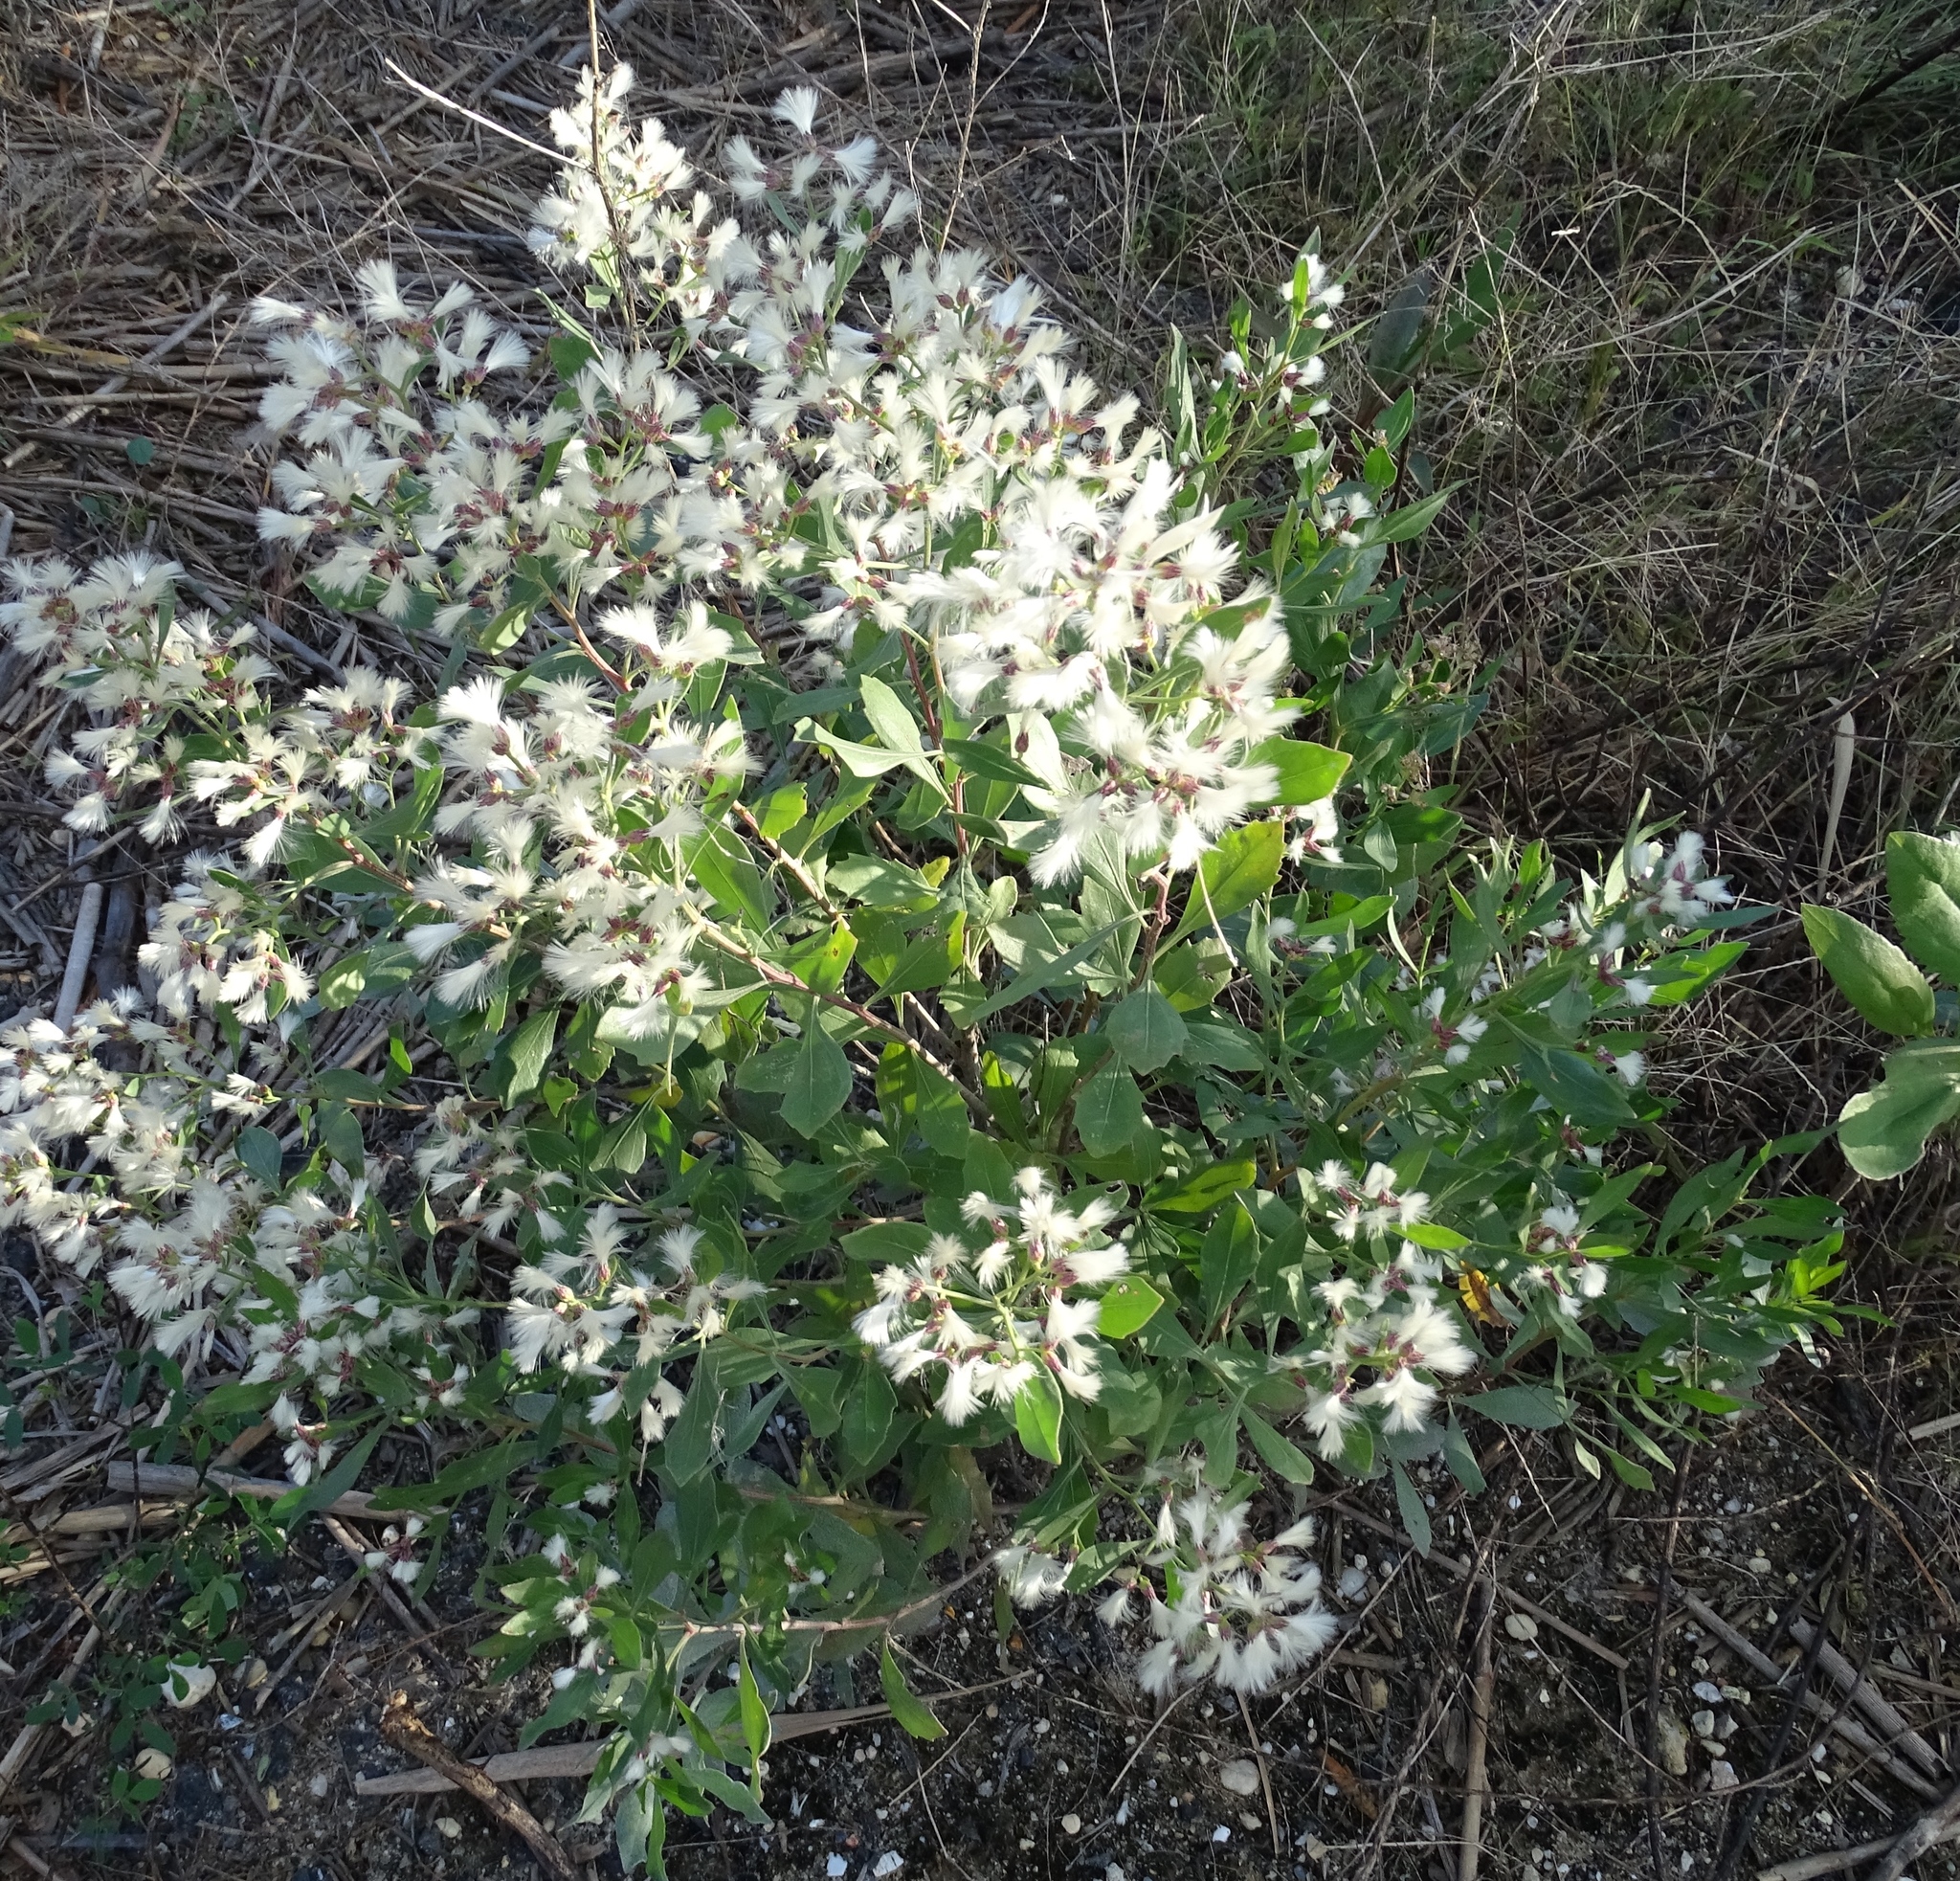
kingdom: Plantae
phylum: Tracheophyta
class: Magnoliopsida
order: Asterales
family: Asteraceae
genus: Baccharis
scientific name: Baccharis halimifolia
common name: Eastern baccharis
